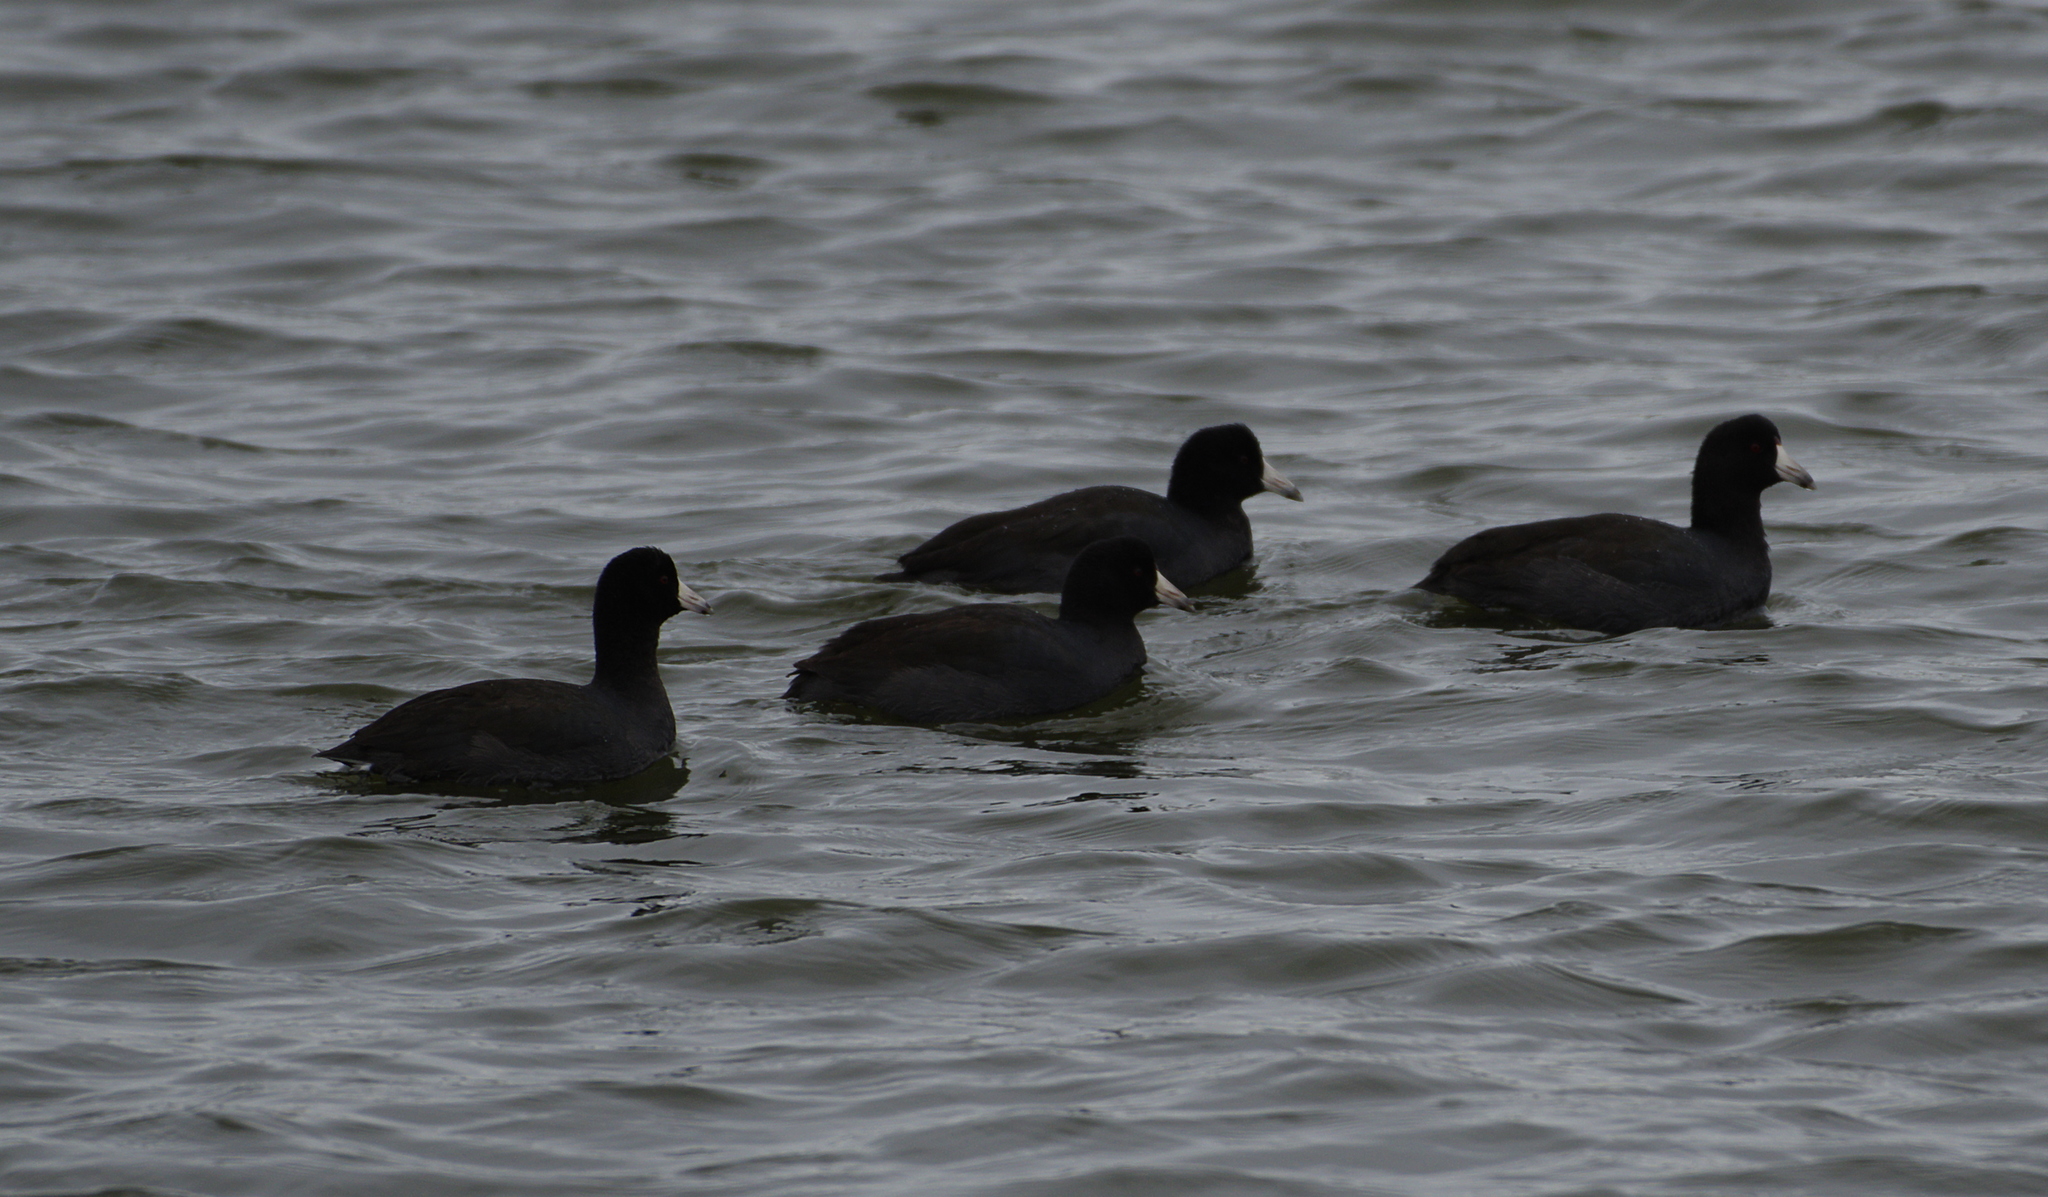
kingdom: Animalia
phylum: Chordata
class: Aves
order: Gruiformes
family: Rallidae
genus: Fulica
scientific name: Fulica americana
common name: American coot
